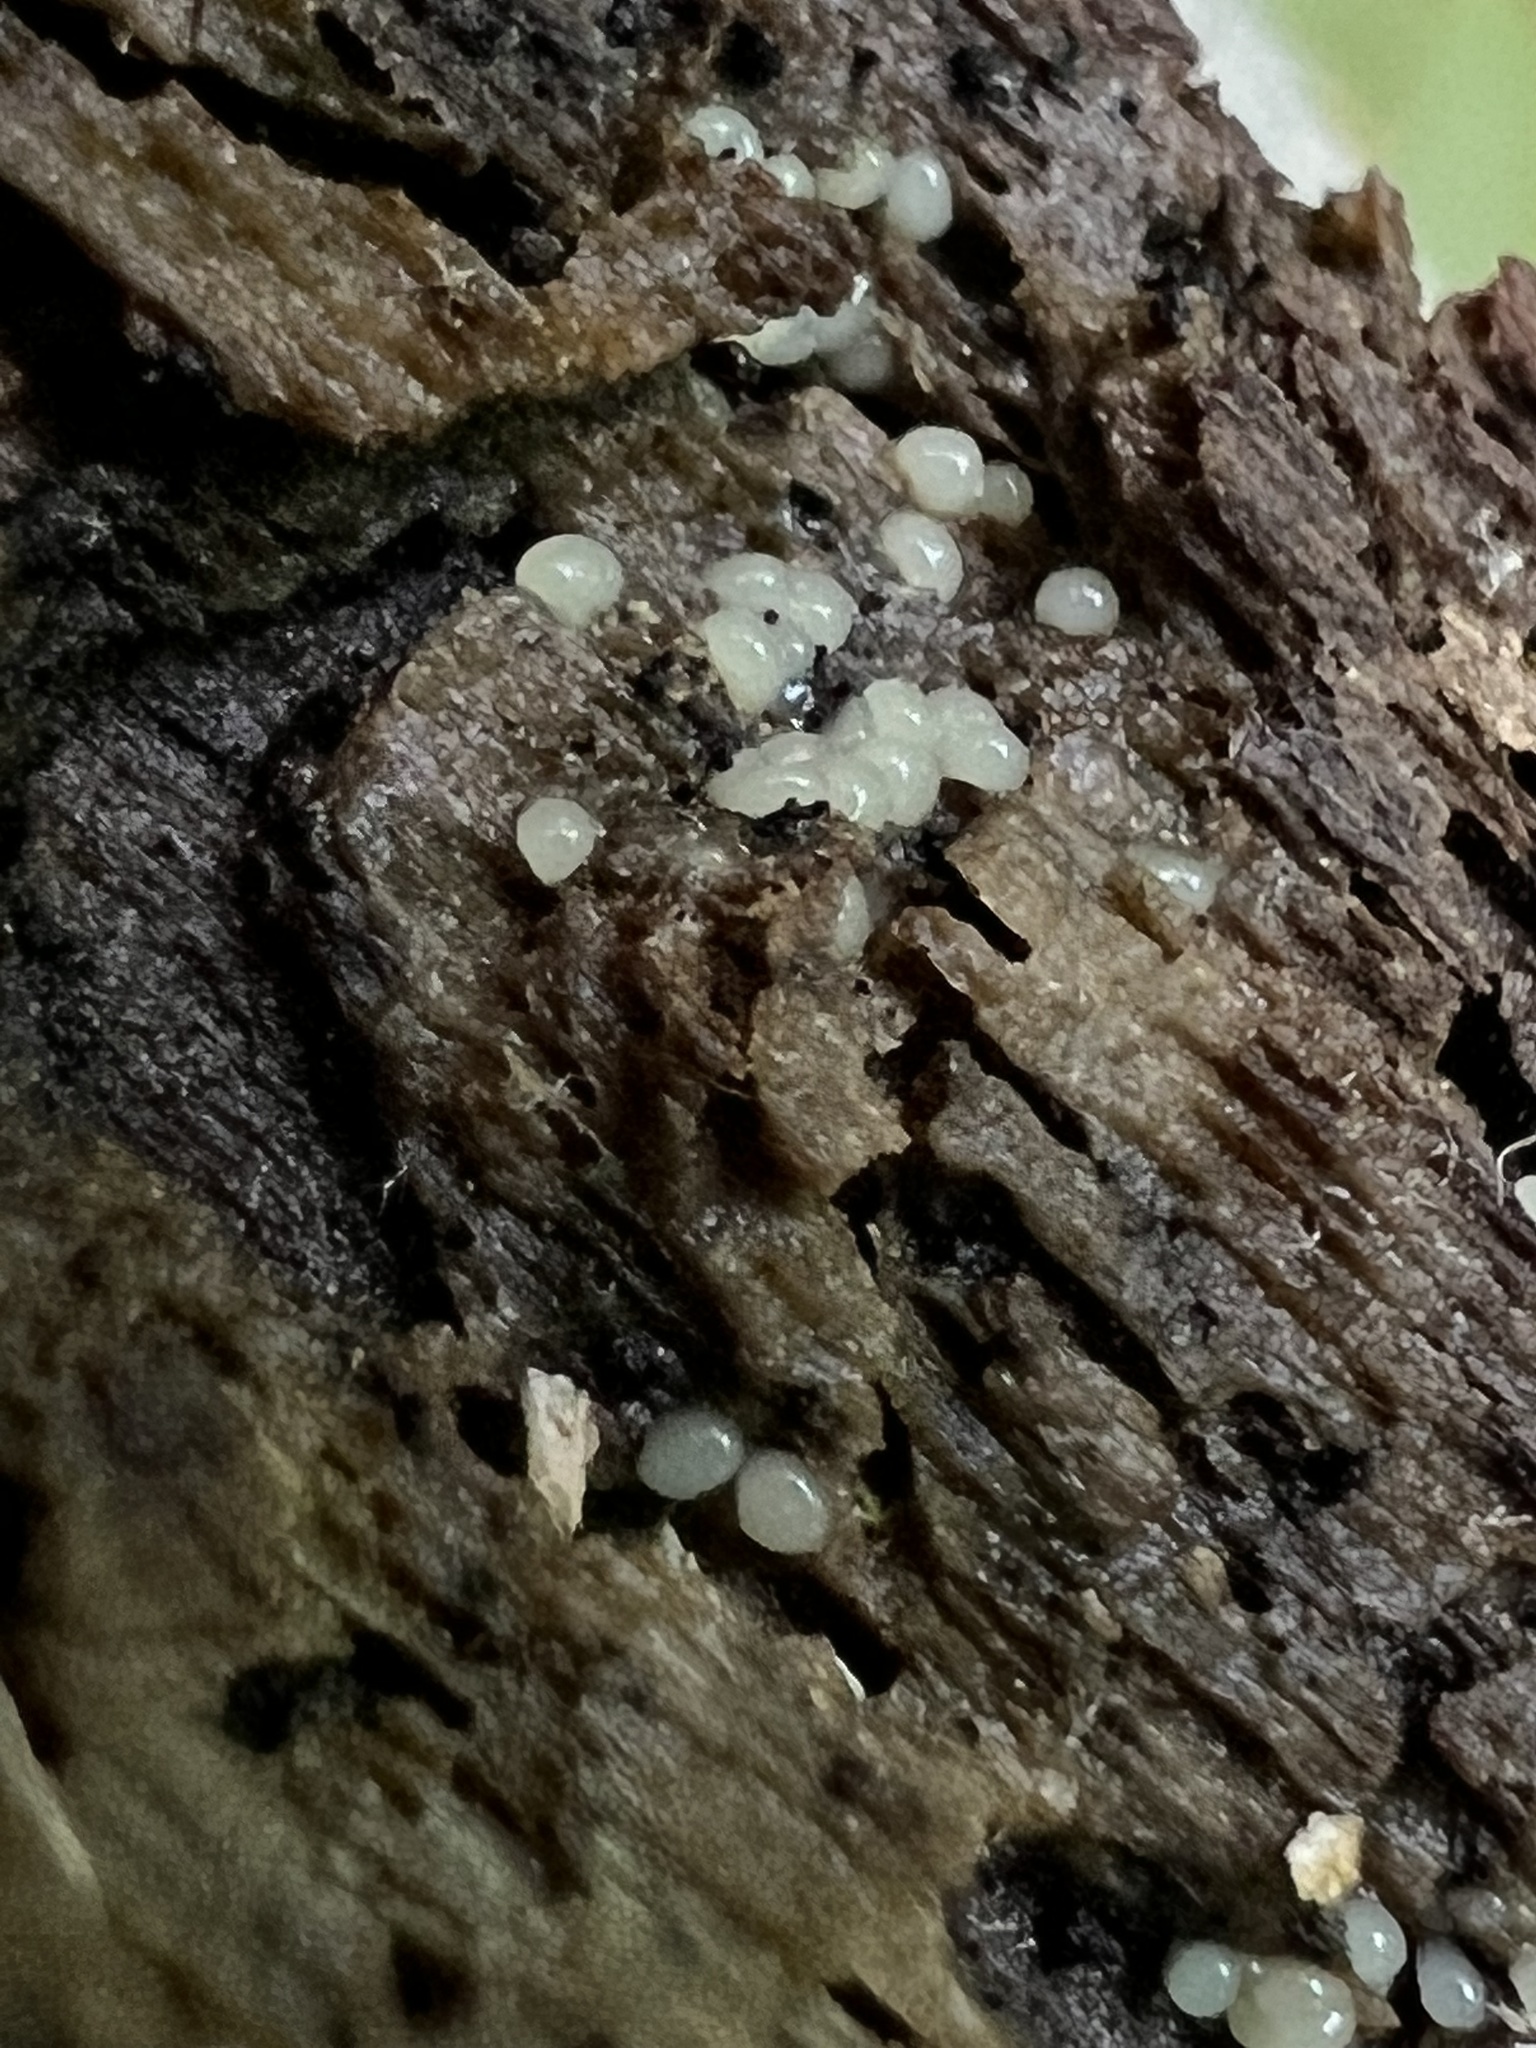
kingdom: Fungi
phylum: Basidiomycota
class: Atractiellomycetes
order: Atractiellales
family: Phleogenaceae
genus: Helicogloea
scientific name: Helicogloea compressa
